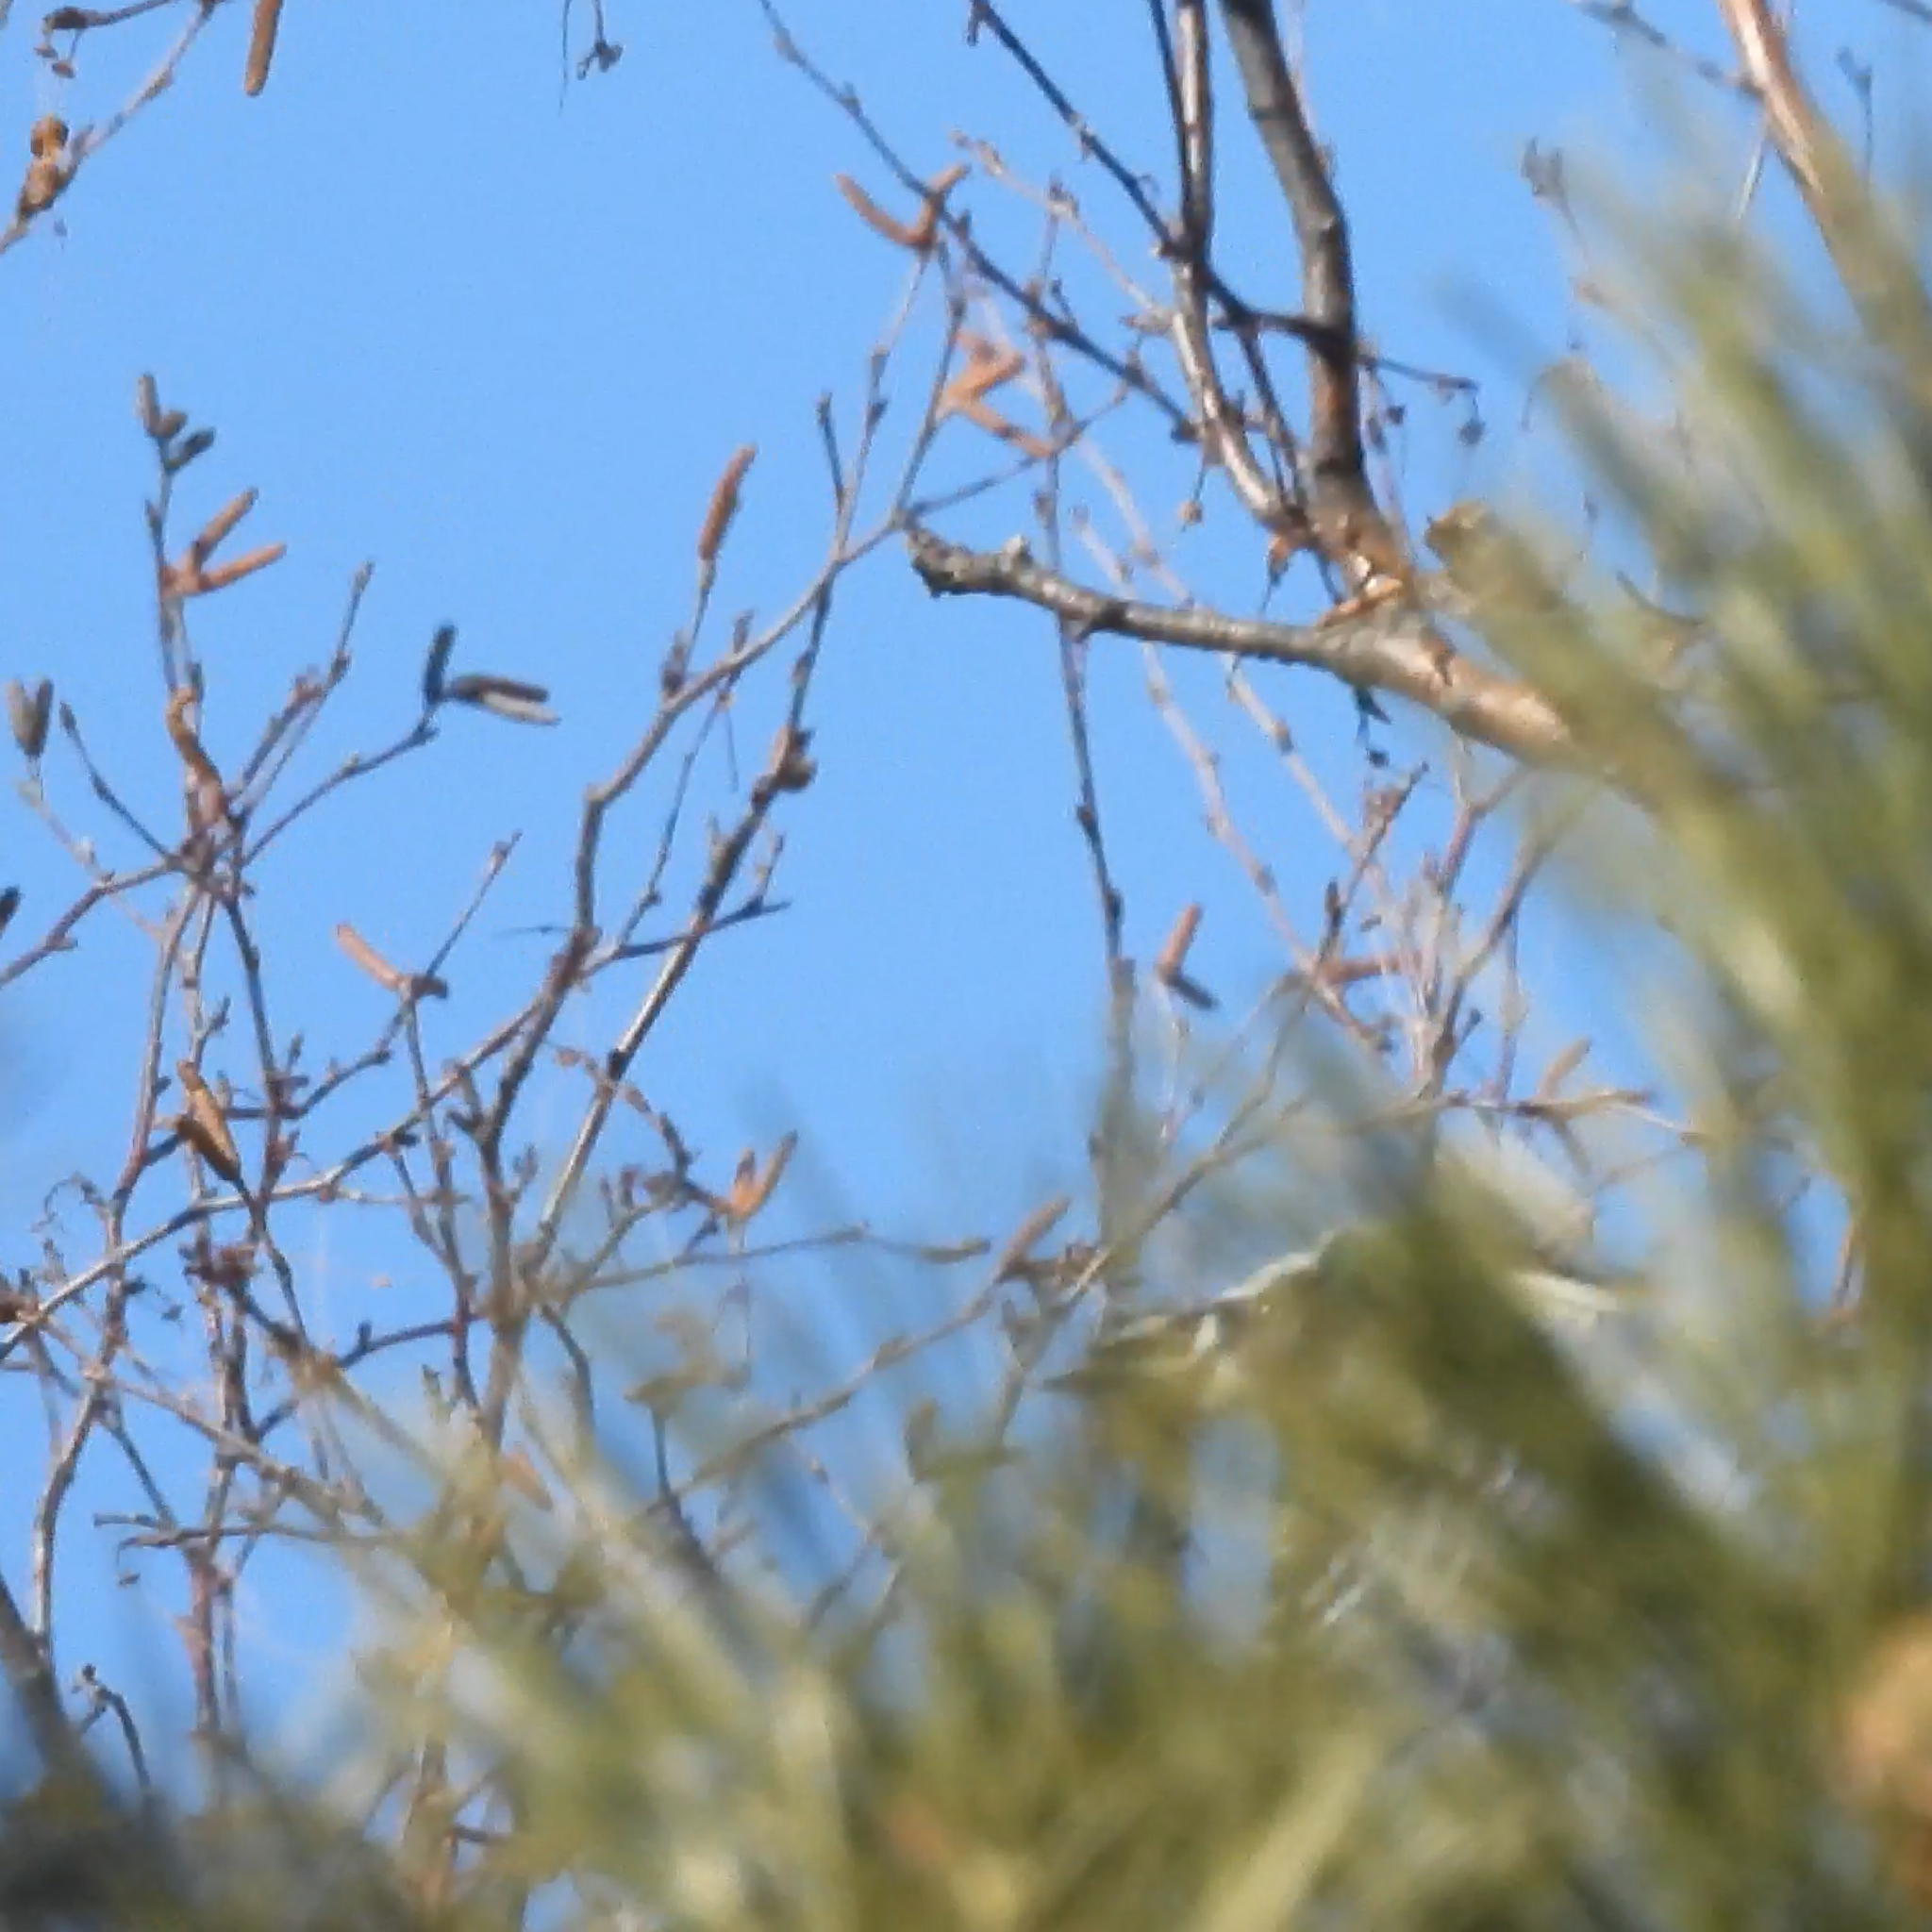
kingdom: Animalia
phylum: Chordata
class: Aves
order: Piciformes
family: Picidae
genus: Dryobates
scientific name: Dryobates pubescens
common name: Downy woodpecker
